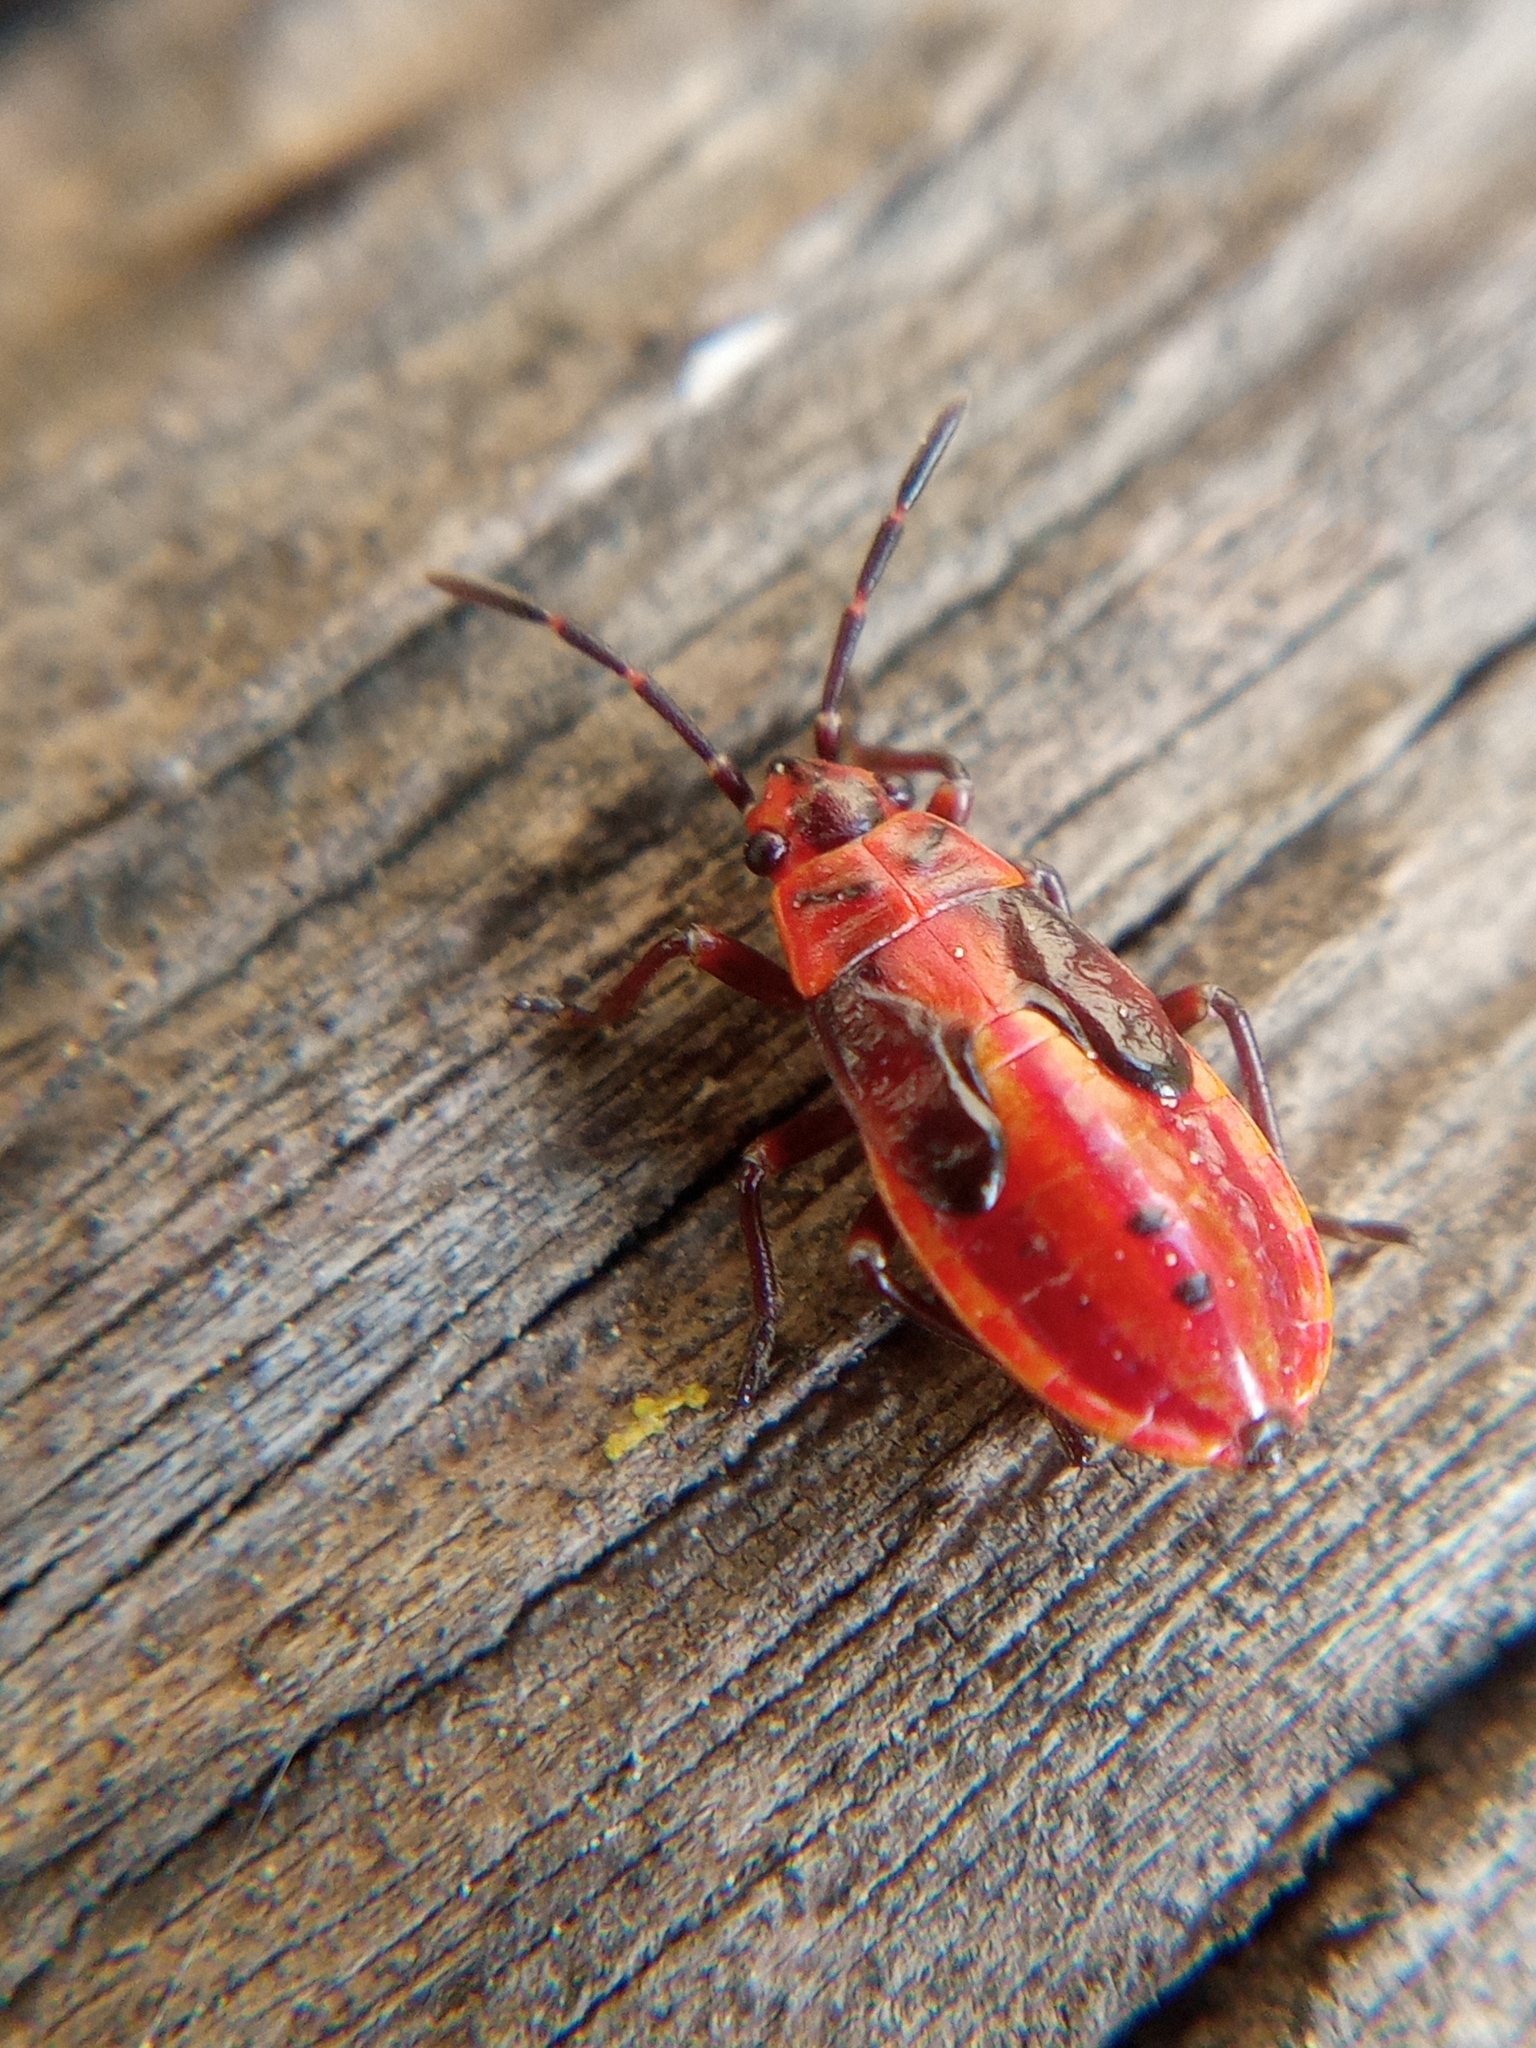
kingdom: Animalia
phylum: Arthropoda
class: Insecta
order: Hemiptera
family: Lygaeidae
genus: Lygaeus
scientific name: Lygaeus equestris
